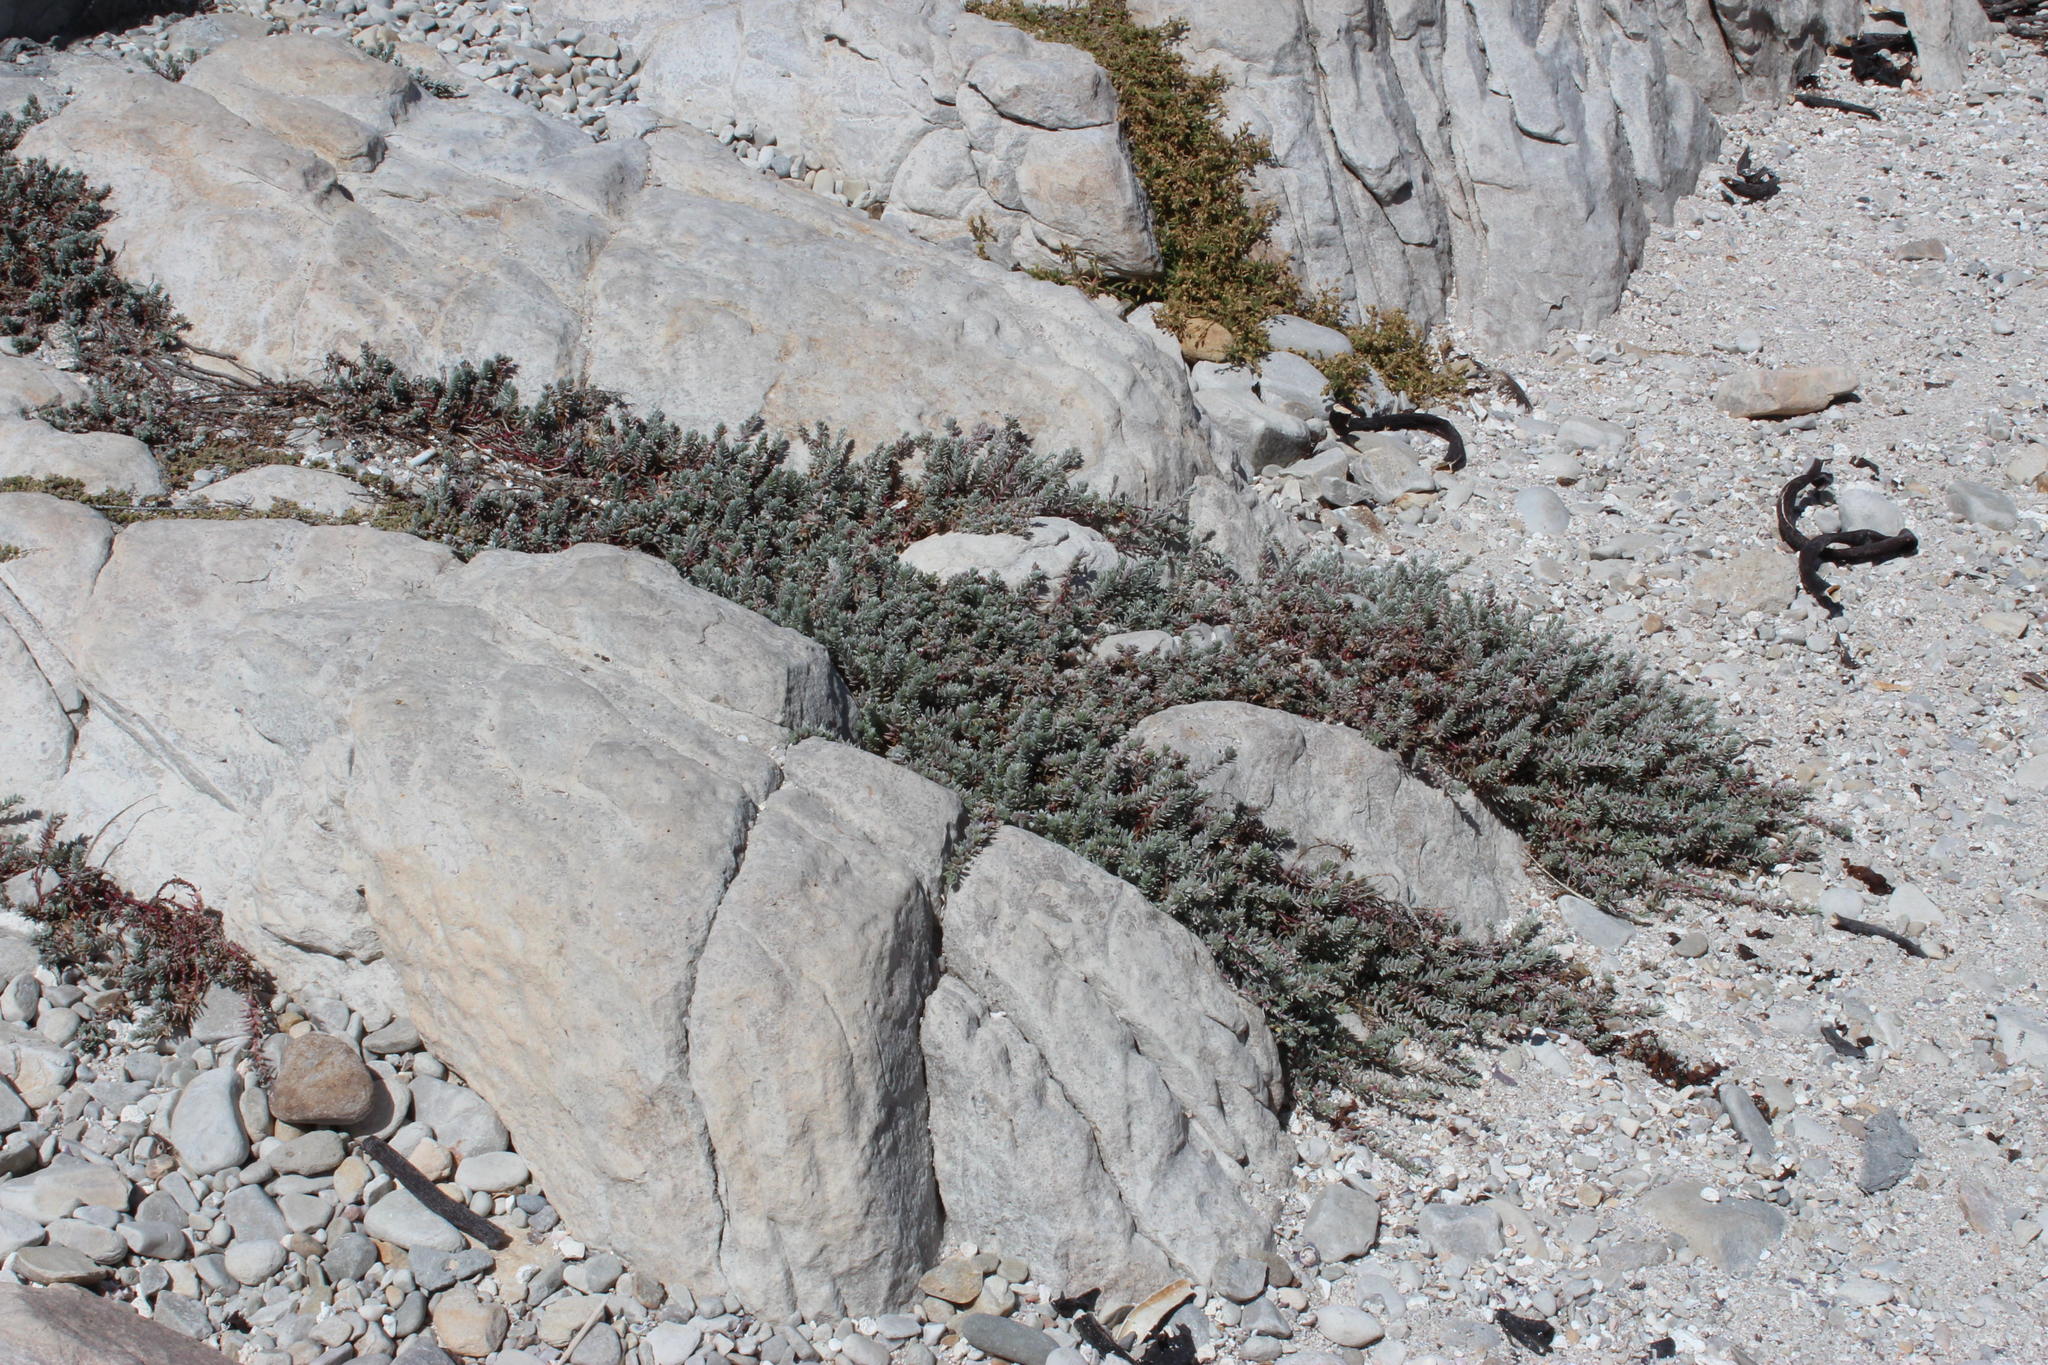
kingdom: Plantae
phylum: Tracheophyta
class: Magnoliopsida
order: Caryophyllales
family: Amaranthaceae
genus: Chenolea
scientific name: Chenolea diffusa
